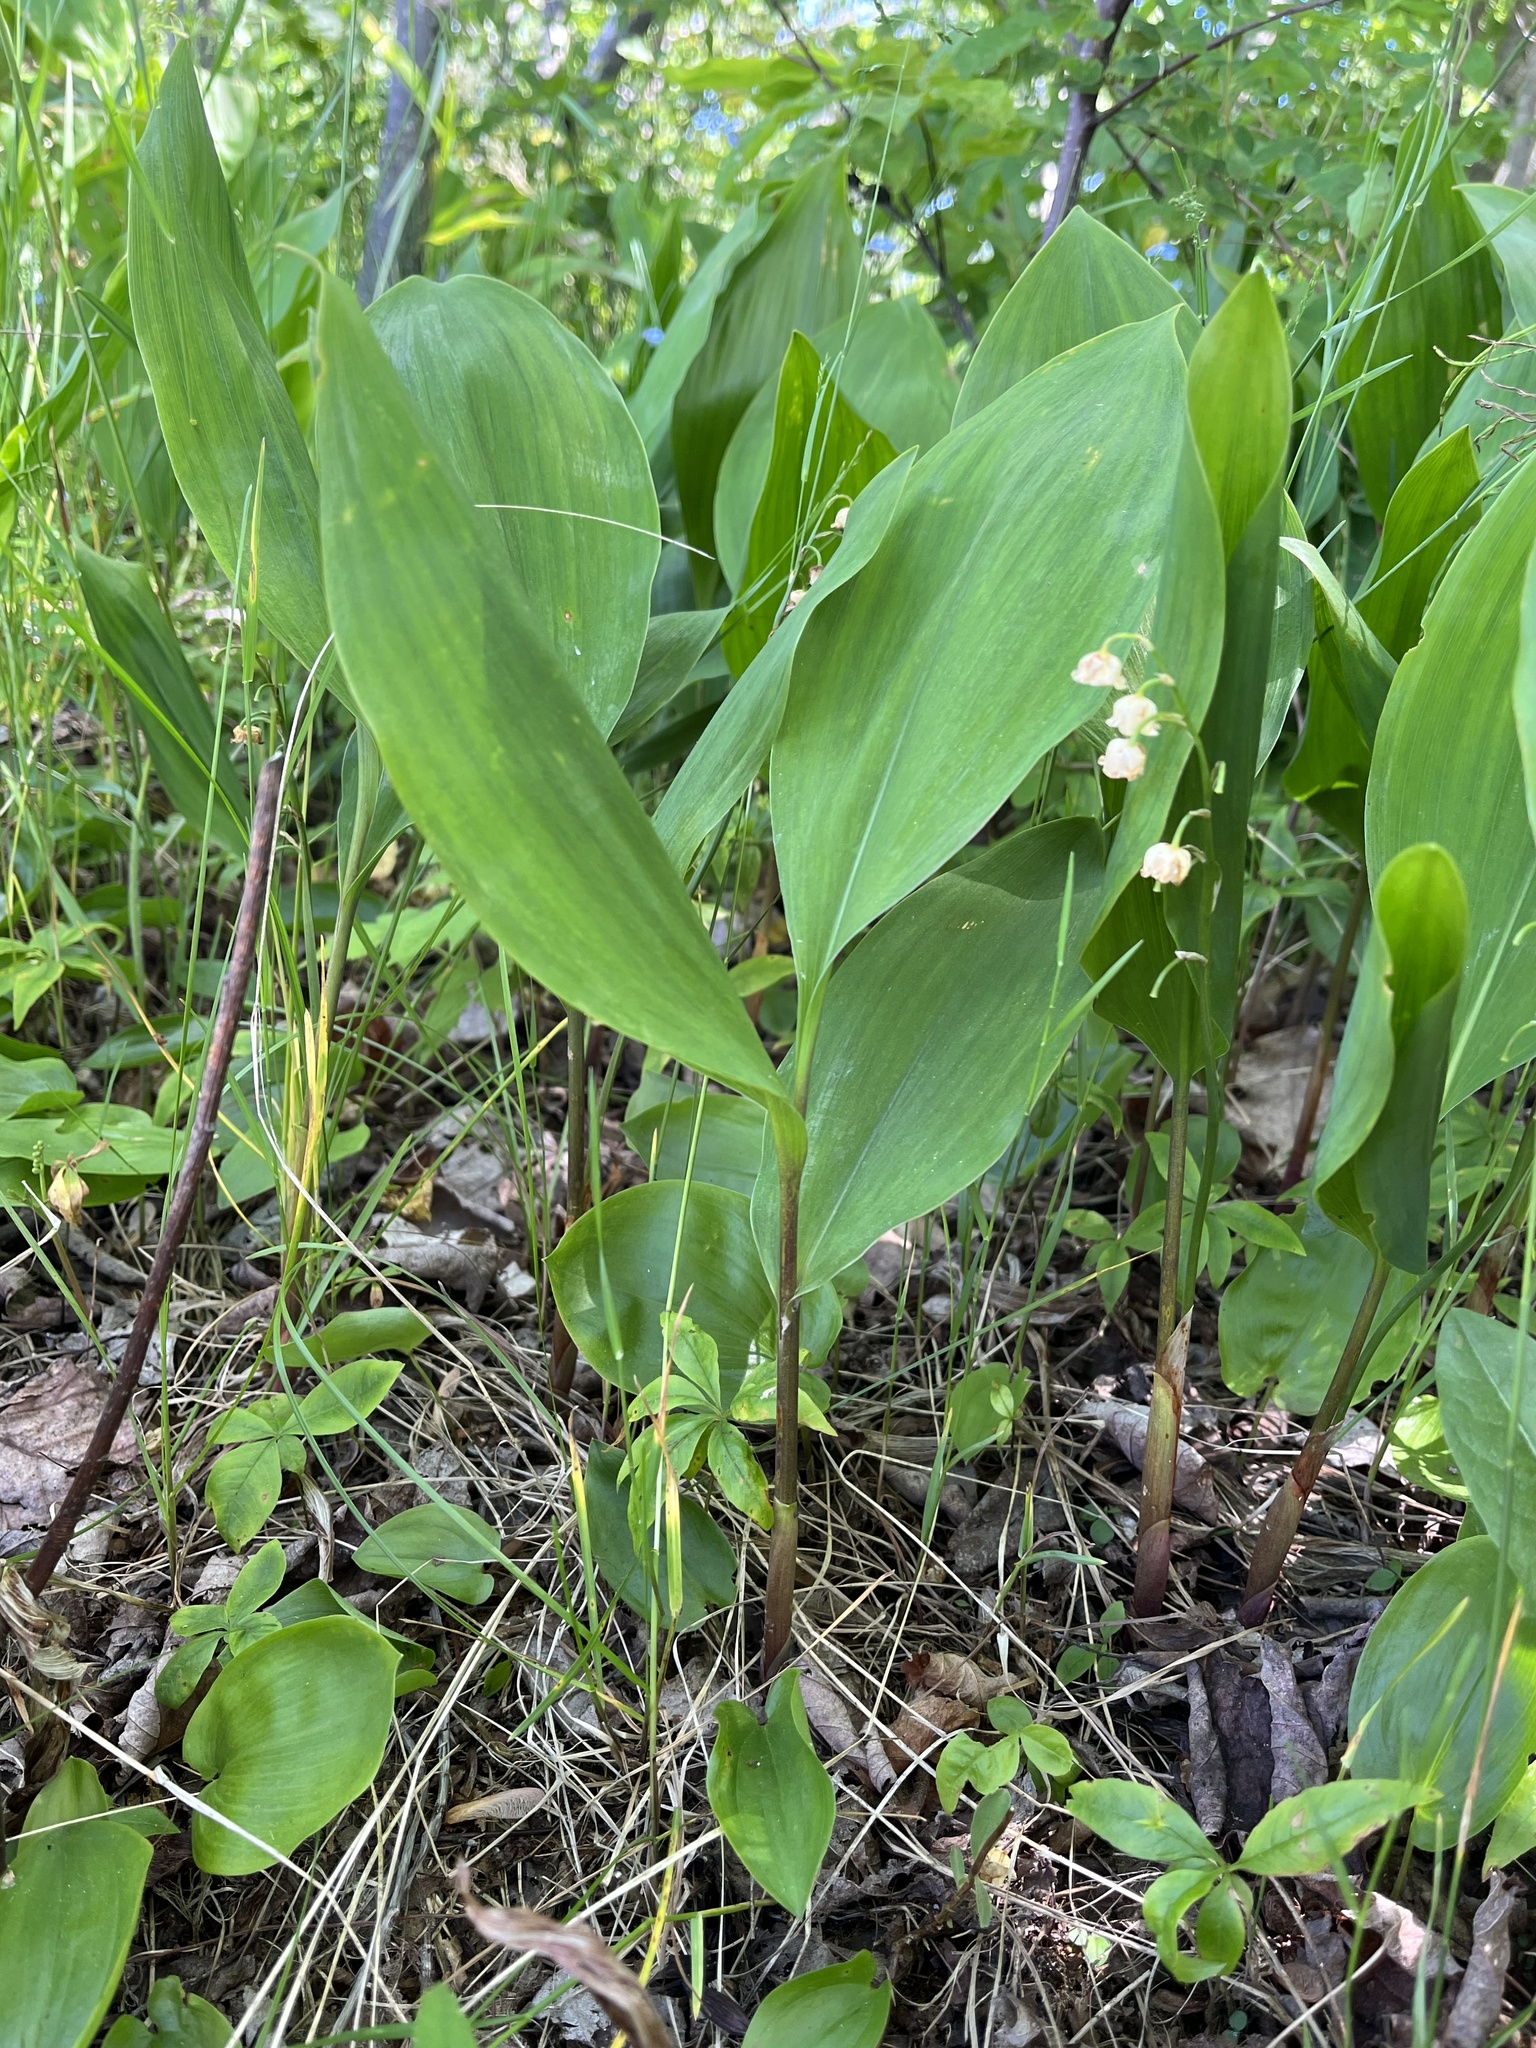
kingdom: Plantae
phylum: Tracheophyta
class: Liliopsida
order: Asparagales
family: Asparagaceae
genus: Convallaria
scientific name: Convallaria majalis
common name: Lily-of-the-valley
